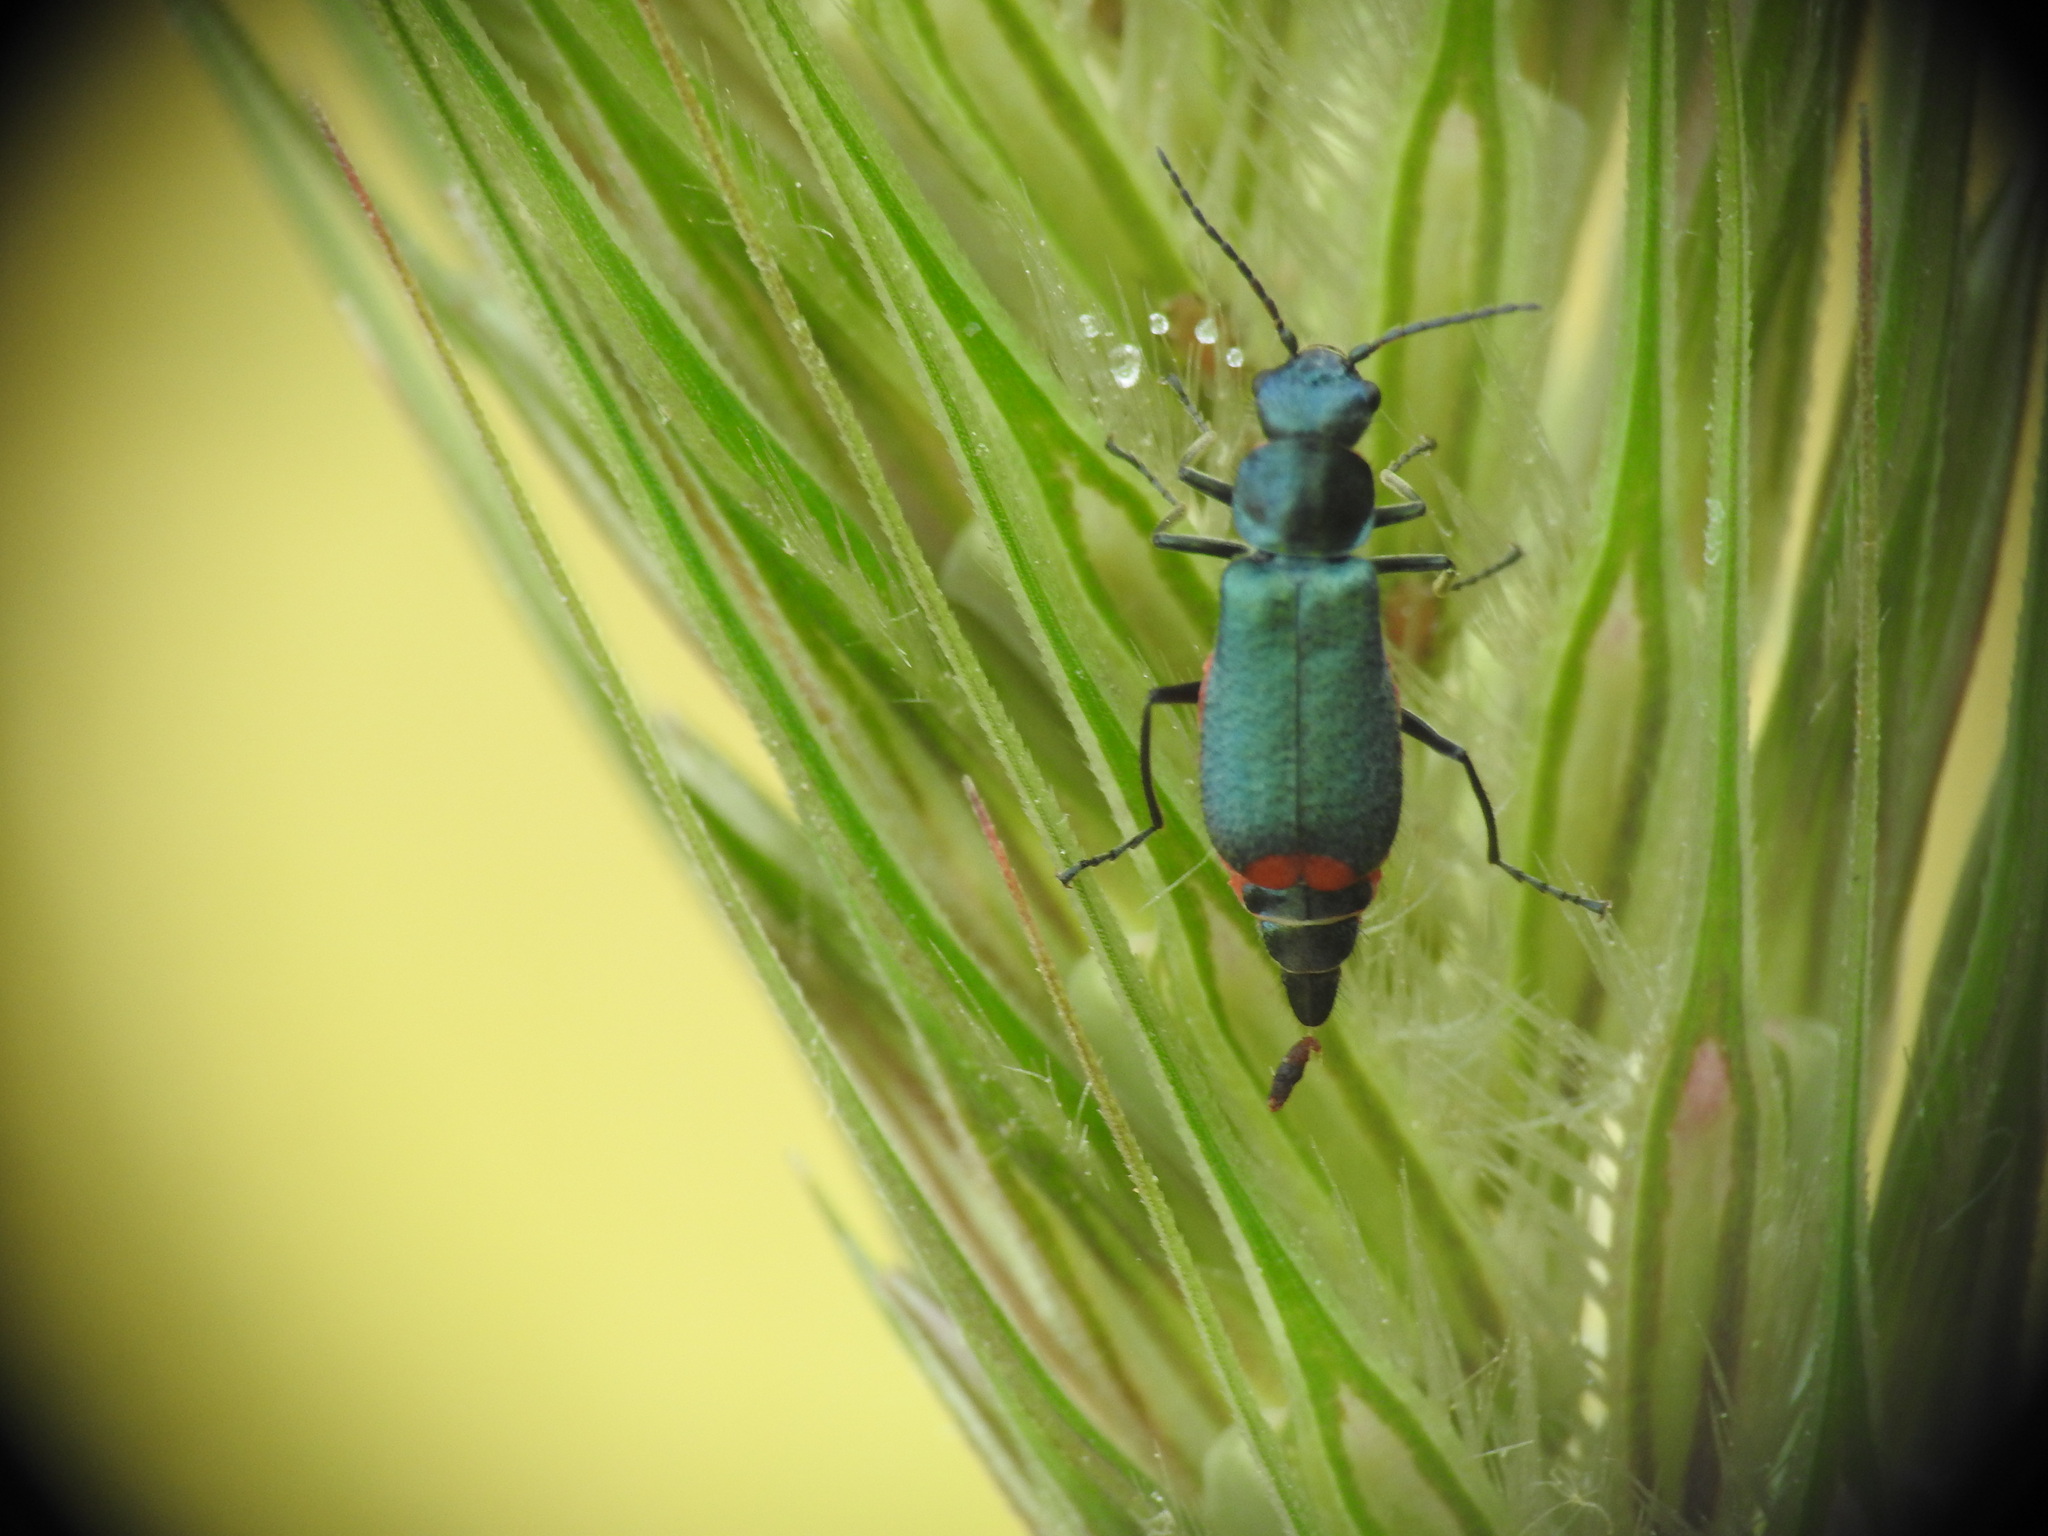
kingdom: Animalia
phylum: Arthropoda
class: Insecta
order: Coleoptera
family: Malachiidae
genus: Clanoptilus
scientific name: Clanoptilus spinipennis
